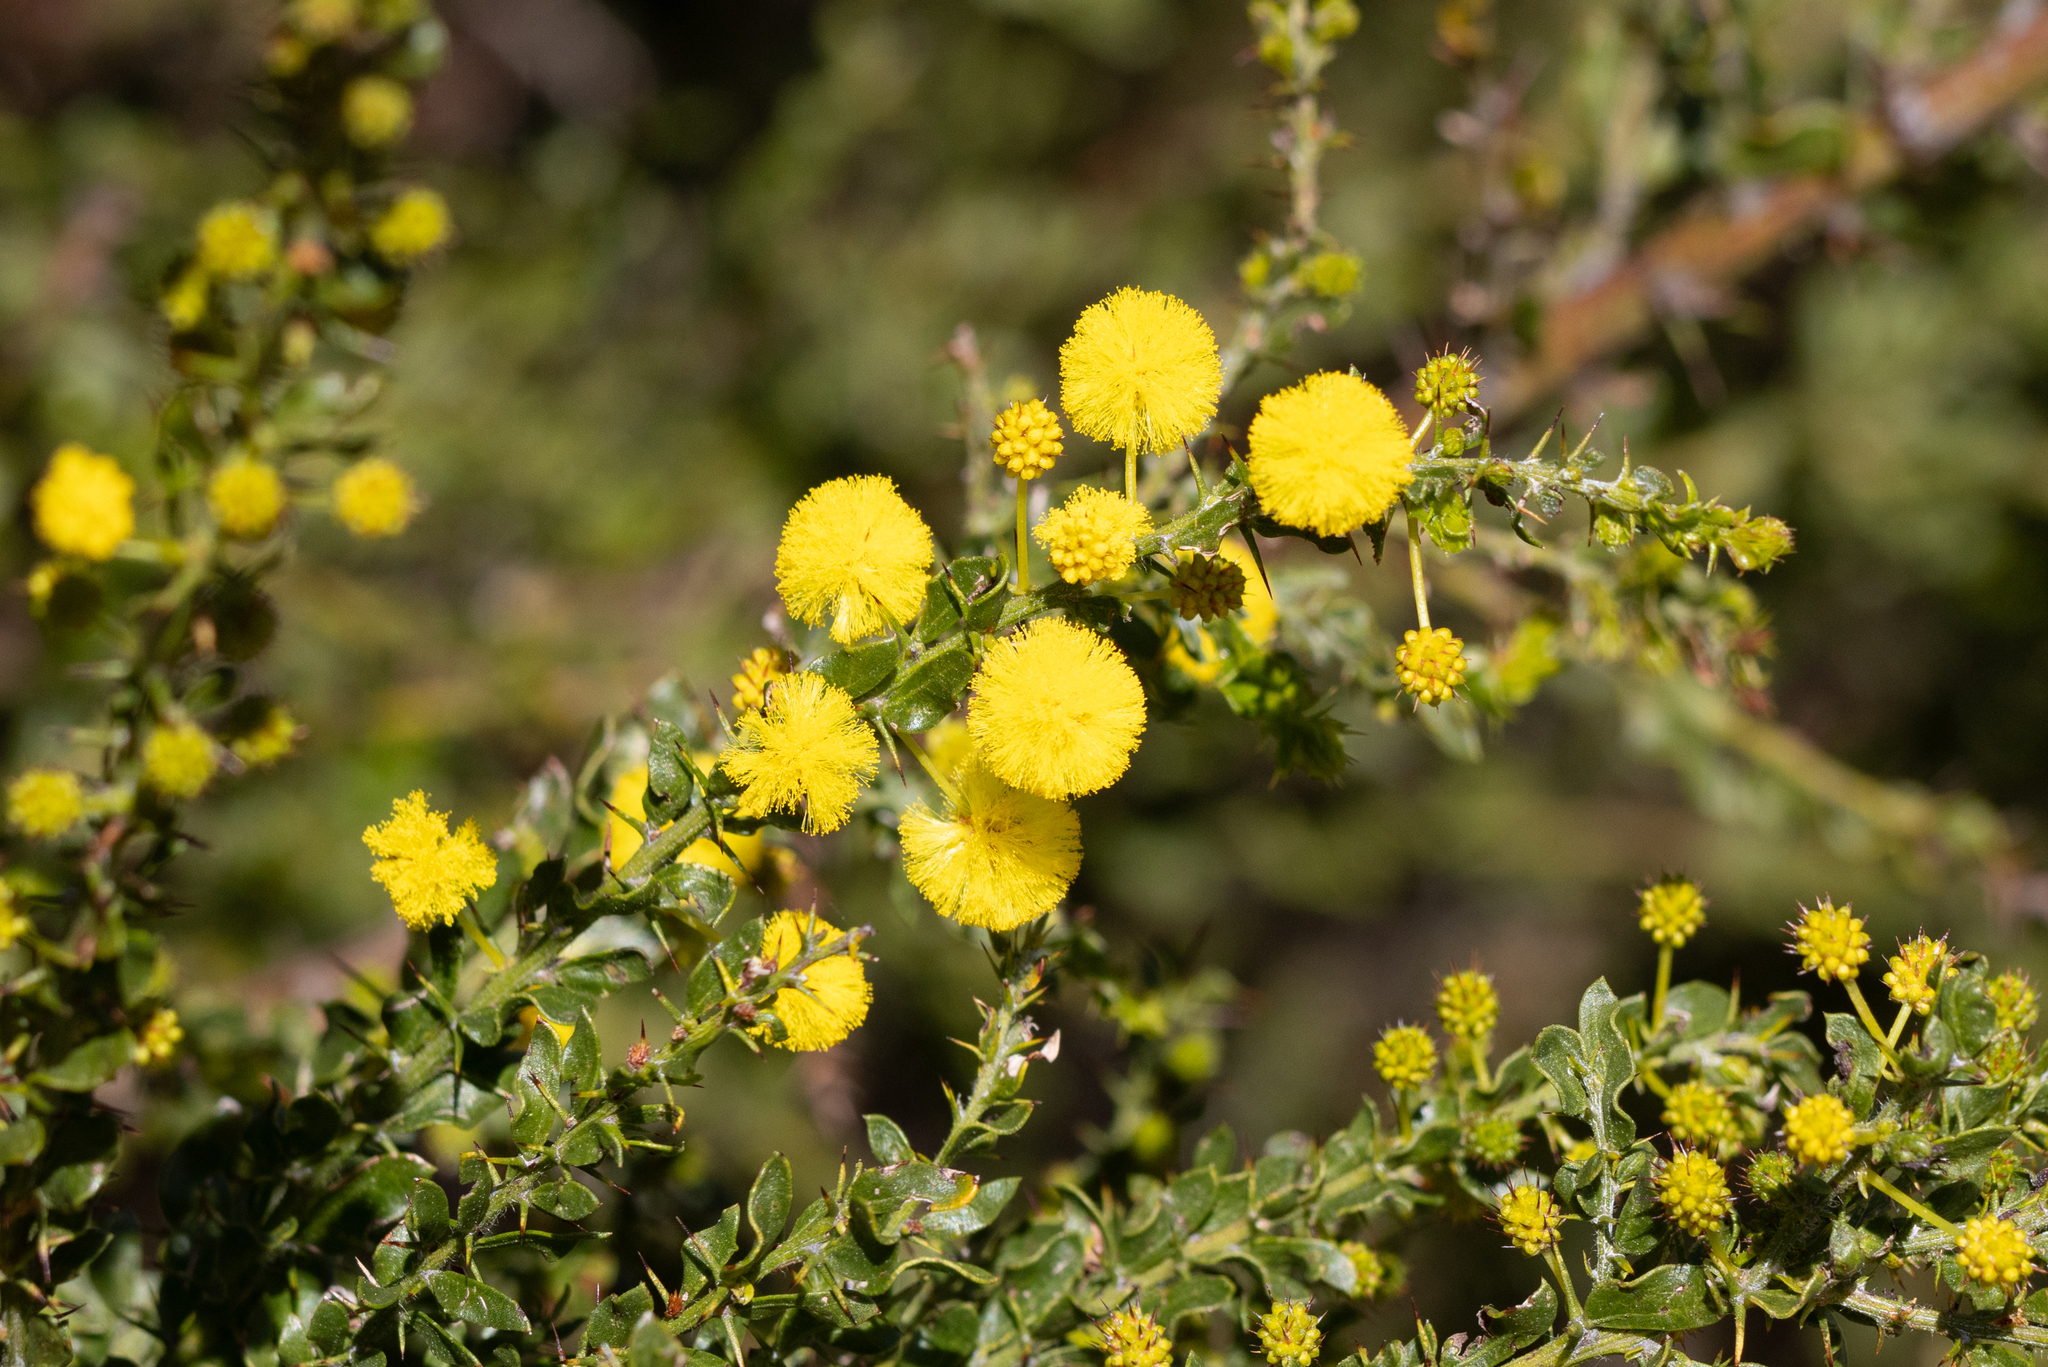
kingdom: Plantae
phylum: Tracheophyta
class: Magnoliopsida
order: Fabales
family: Fabaceae
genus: Acacia
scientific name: Acacia paradoxa
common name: Paradox acacia
